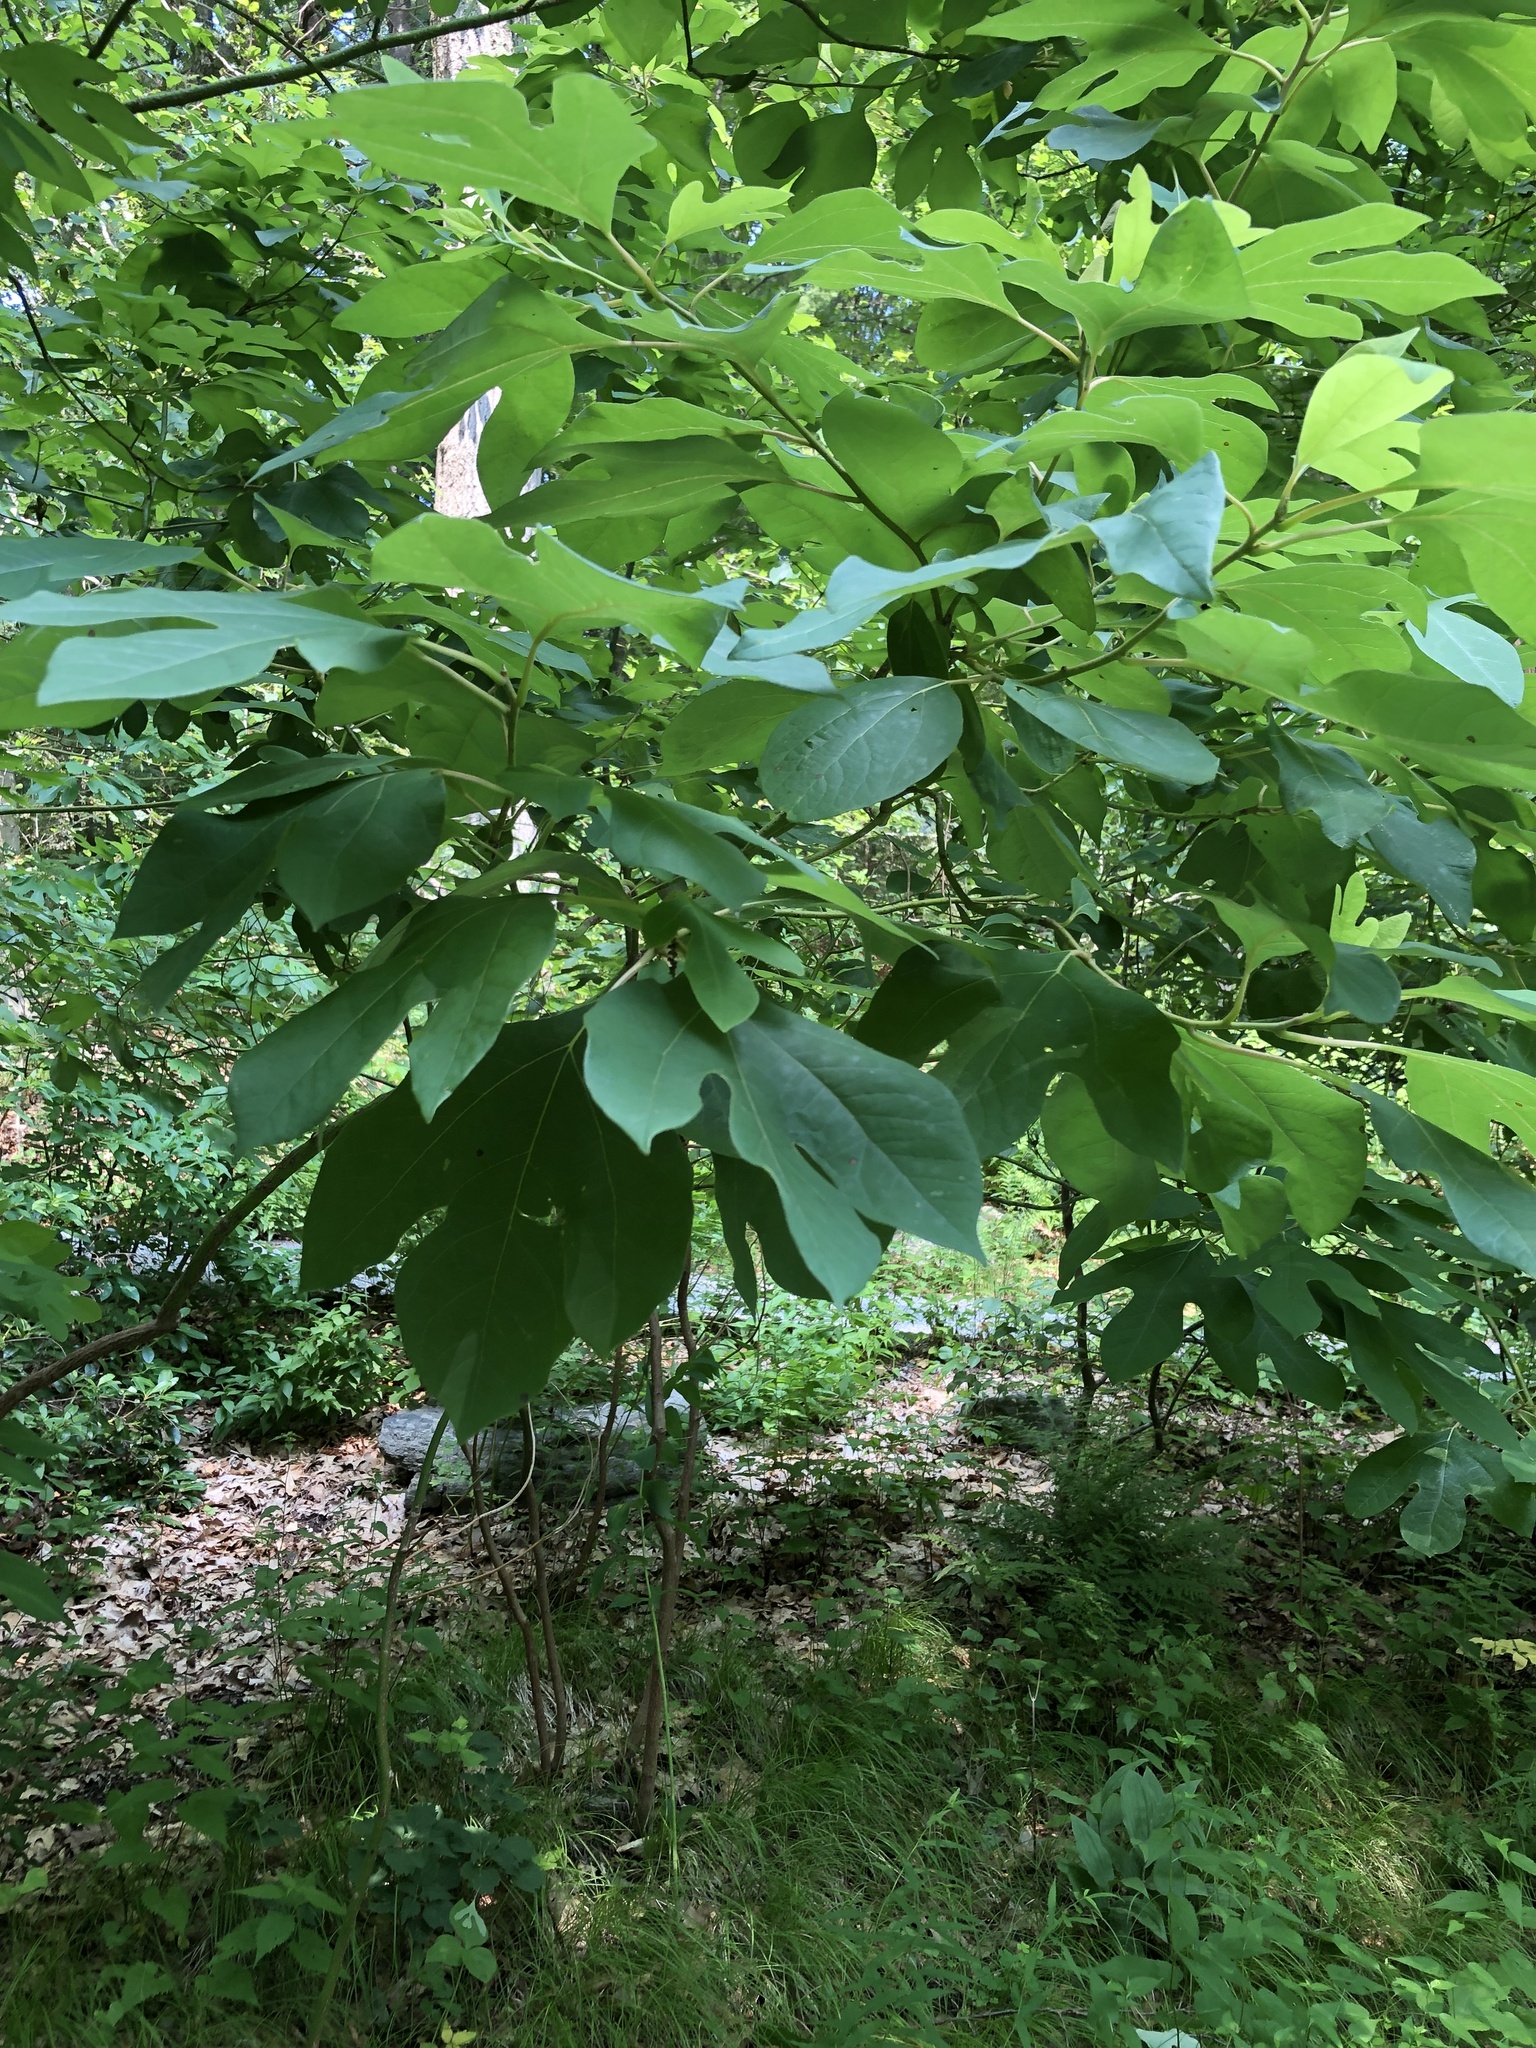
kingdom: Plantae
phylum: Tracheophyta
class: Magnoliopsida
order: Laurales
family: Lauraceae
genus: Sassafras
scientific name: Sassafras albidum
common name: Sassafras
